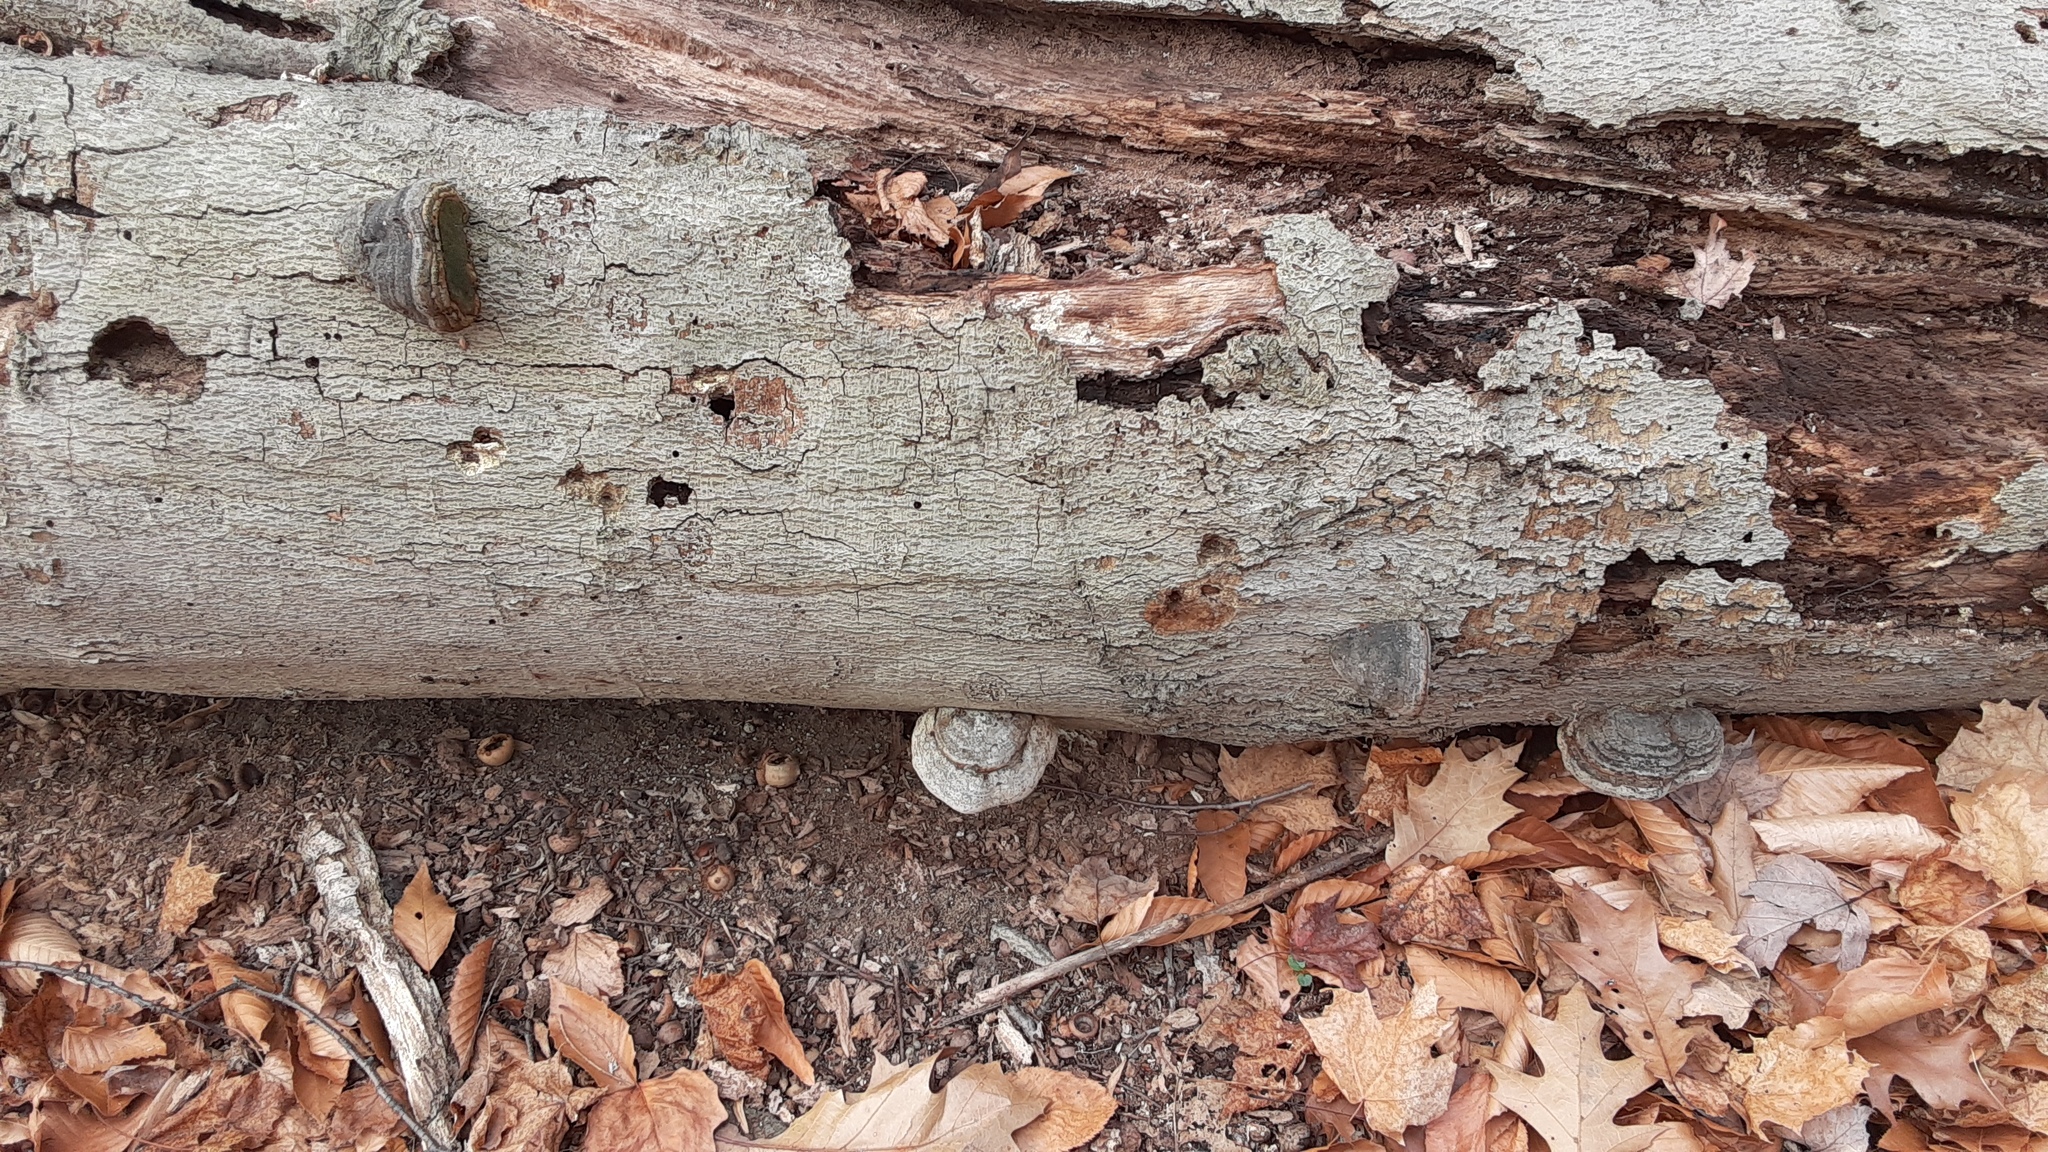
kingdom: Fungi
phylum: Basidiomycota
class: Agaricomycetes
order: Polyporales
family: Polyporaceae
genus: Fomes
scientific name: Fomes fomentarius
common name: Hoof fungus
